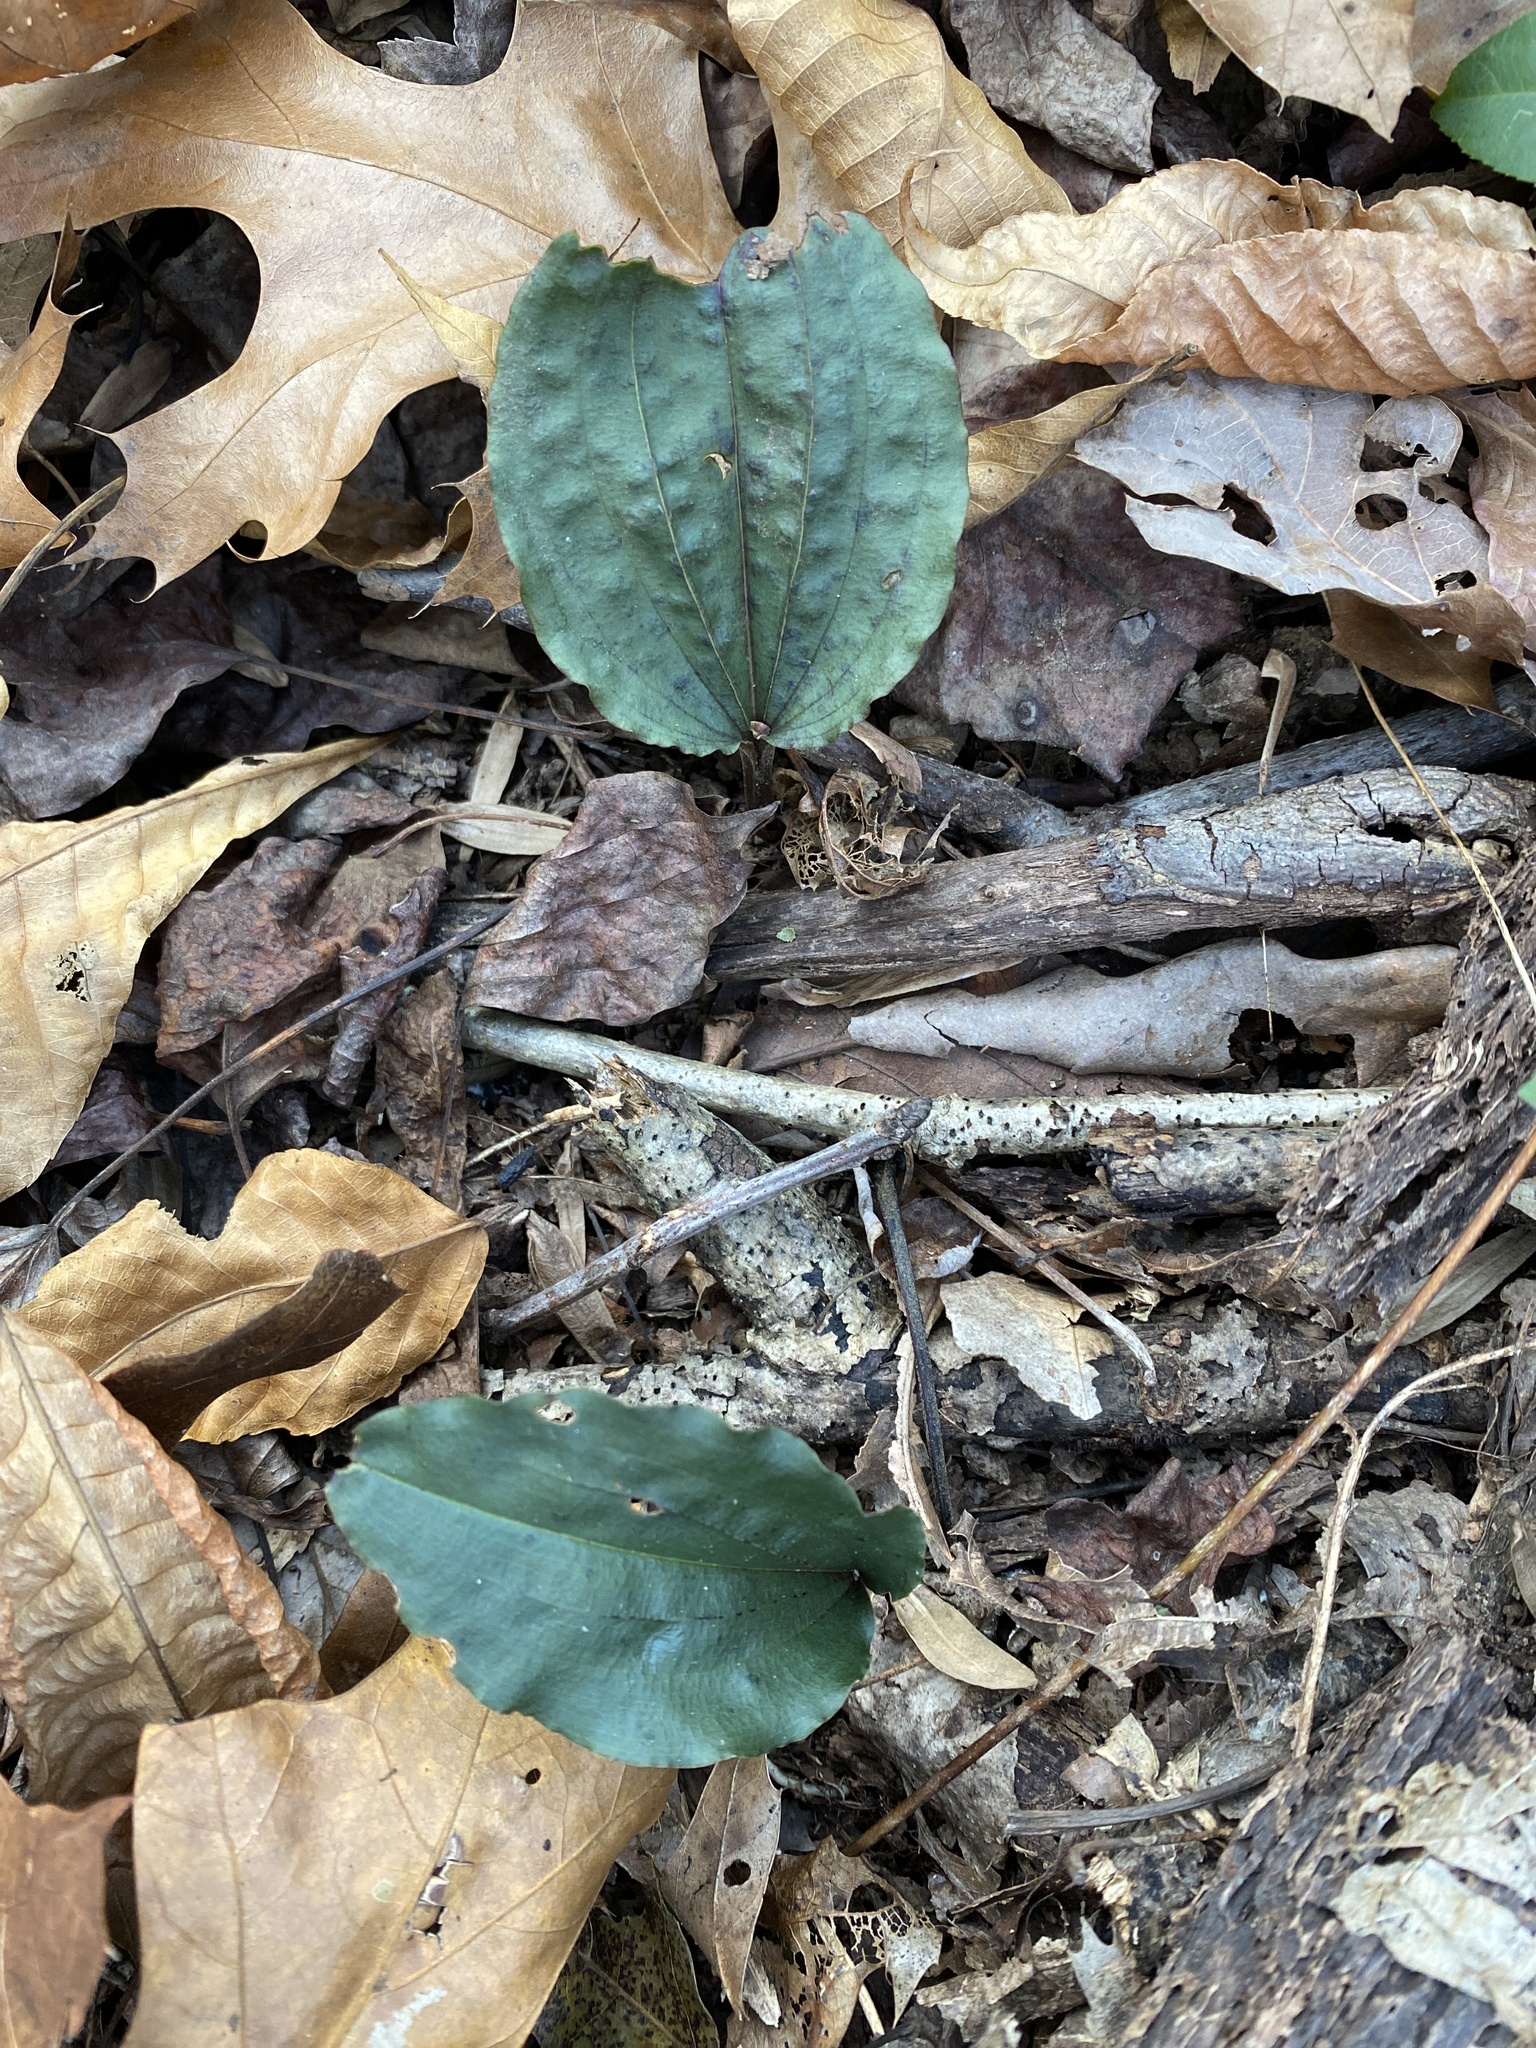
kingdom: Plantae
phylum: Tracheophyta
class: Liliopsida
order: Asparagales
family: Orchidaceae
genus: Tipularia
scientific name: Tipularia discolor
